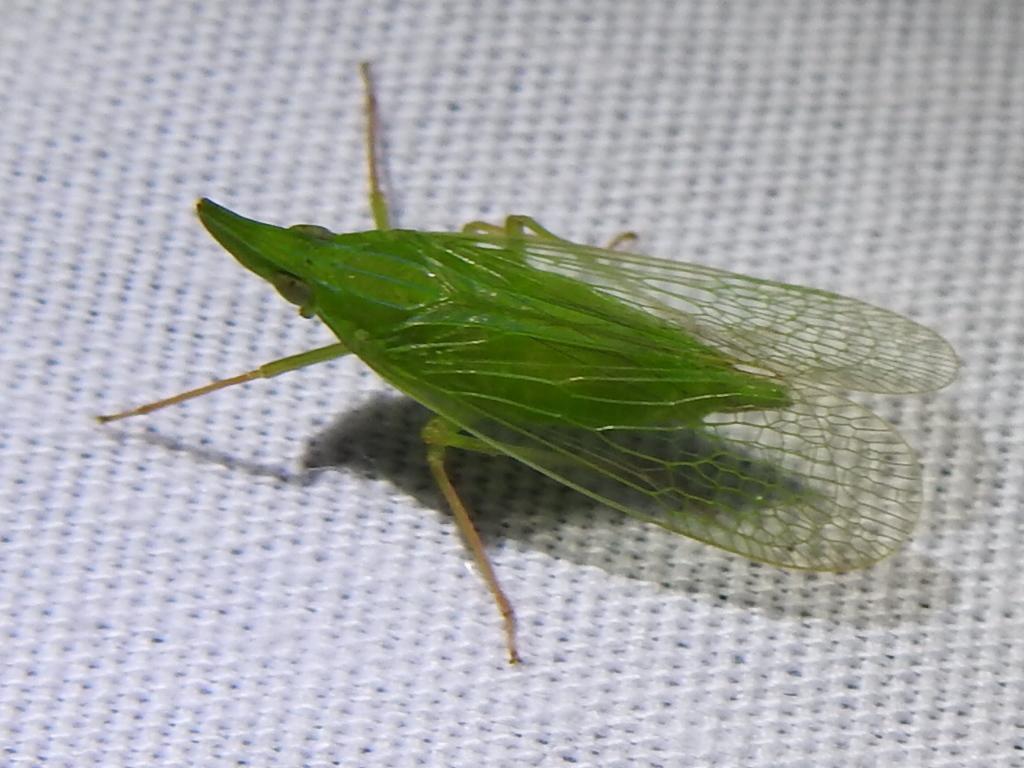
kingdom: Animalia
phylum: Arthropoda
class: Insecta
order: Hemiptera
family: Dictyopharidae
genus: Rhynchomitra
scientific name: Rhynchomitra microrhina
